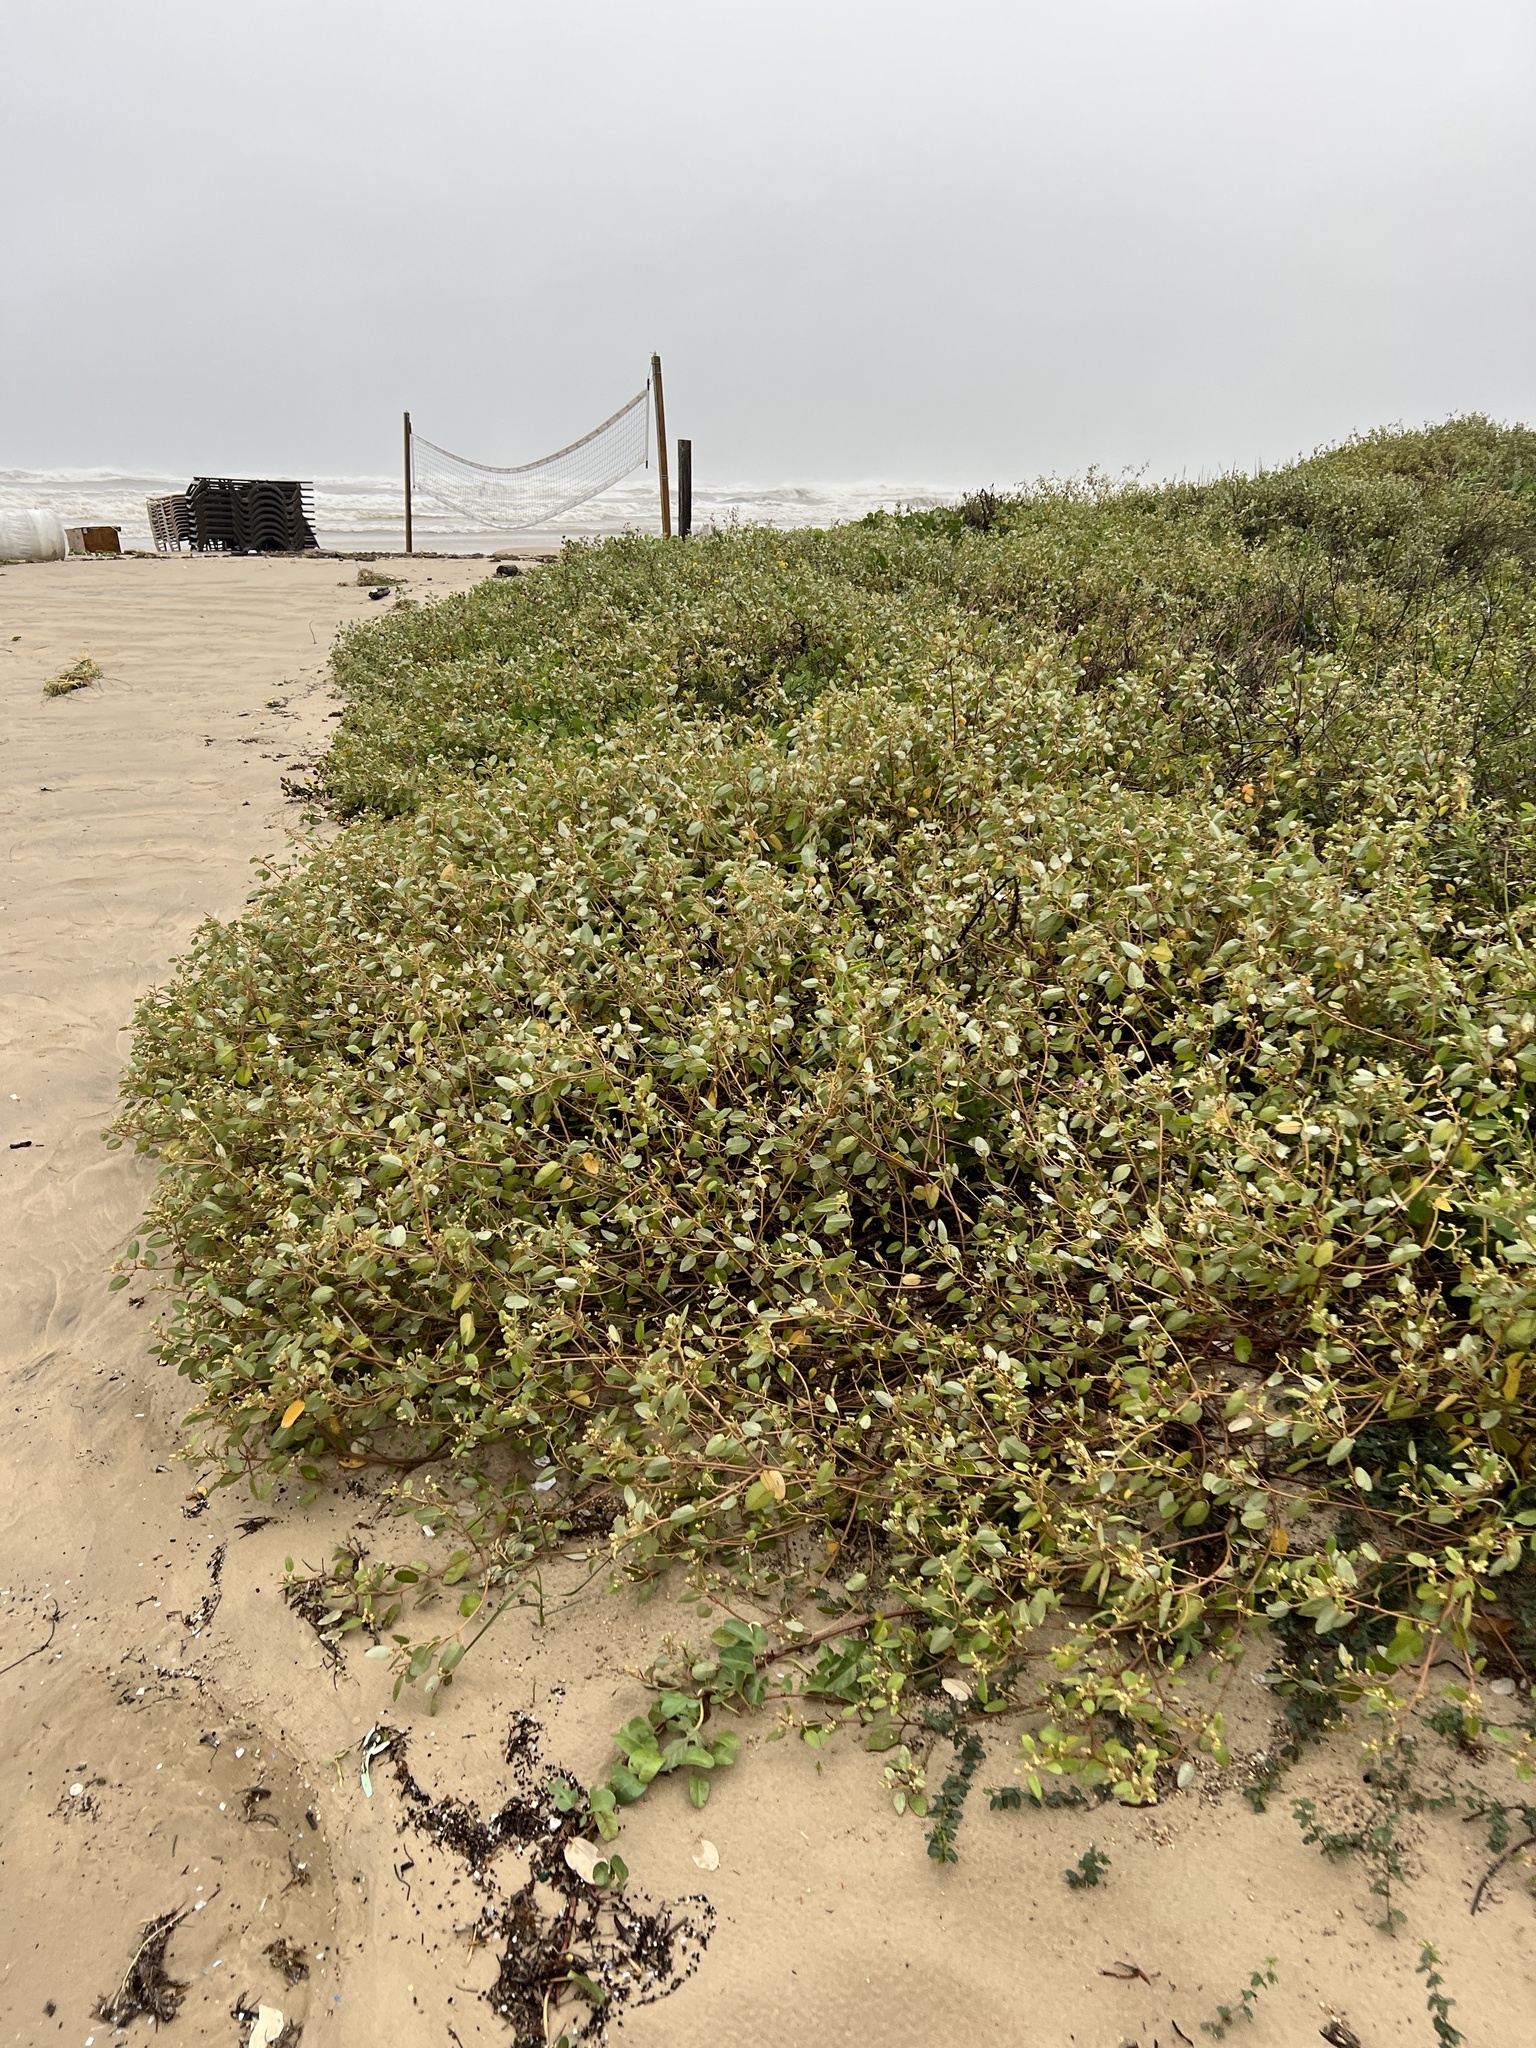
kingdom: Plantae
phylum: Tracheophyta
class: Magnoliopsida
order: Malpighiales
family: Euphorbiaceae
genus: Croton
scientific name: Croton punctatus
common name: Beach-tea
